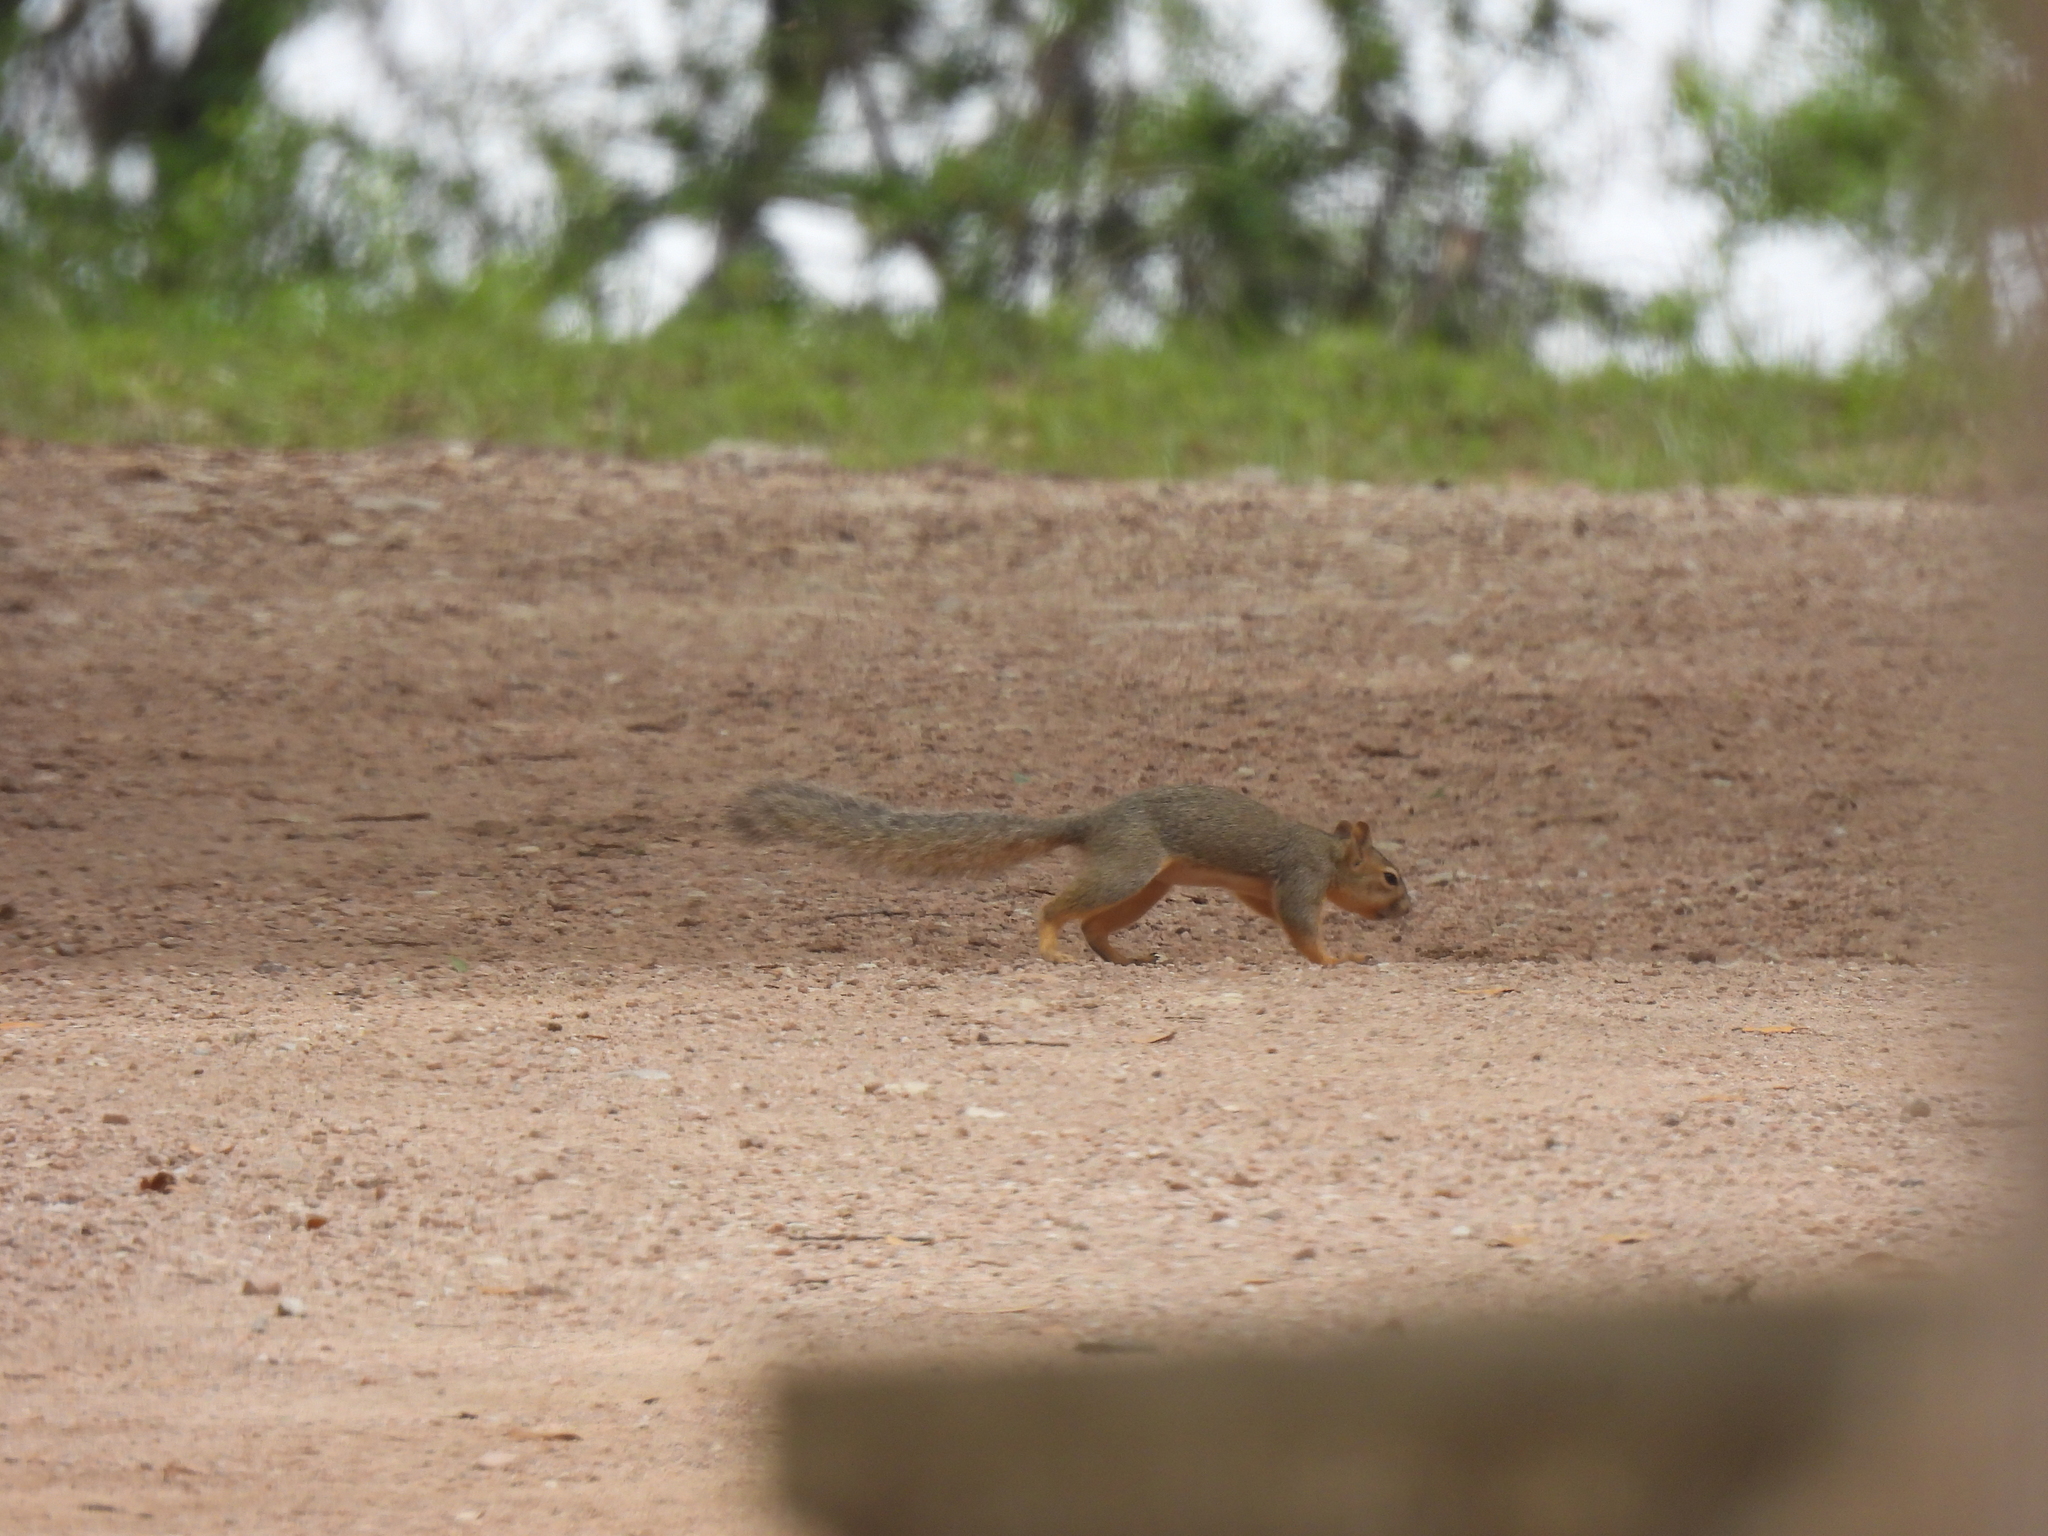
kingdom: Animalia
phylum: Chordata
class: Mammalia
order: Rodentia
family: Sciuridae
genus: Sciurus
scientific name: Sciurus niger
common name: Fox squirrel
